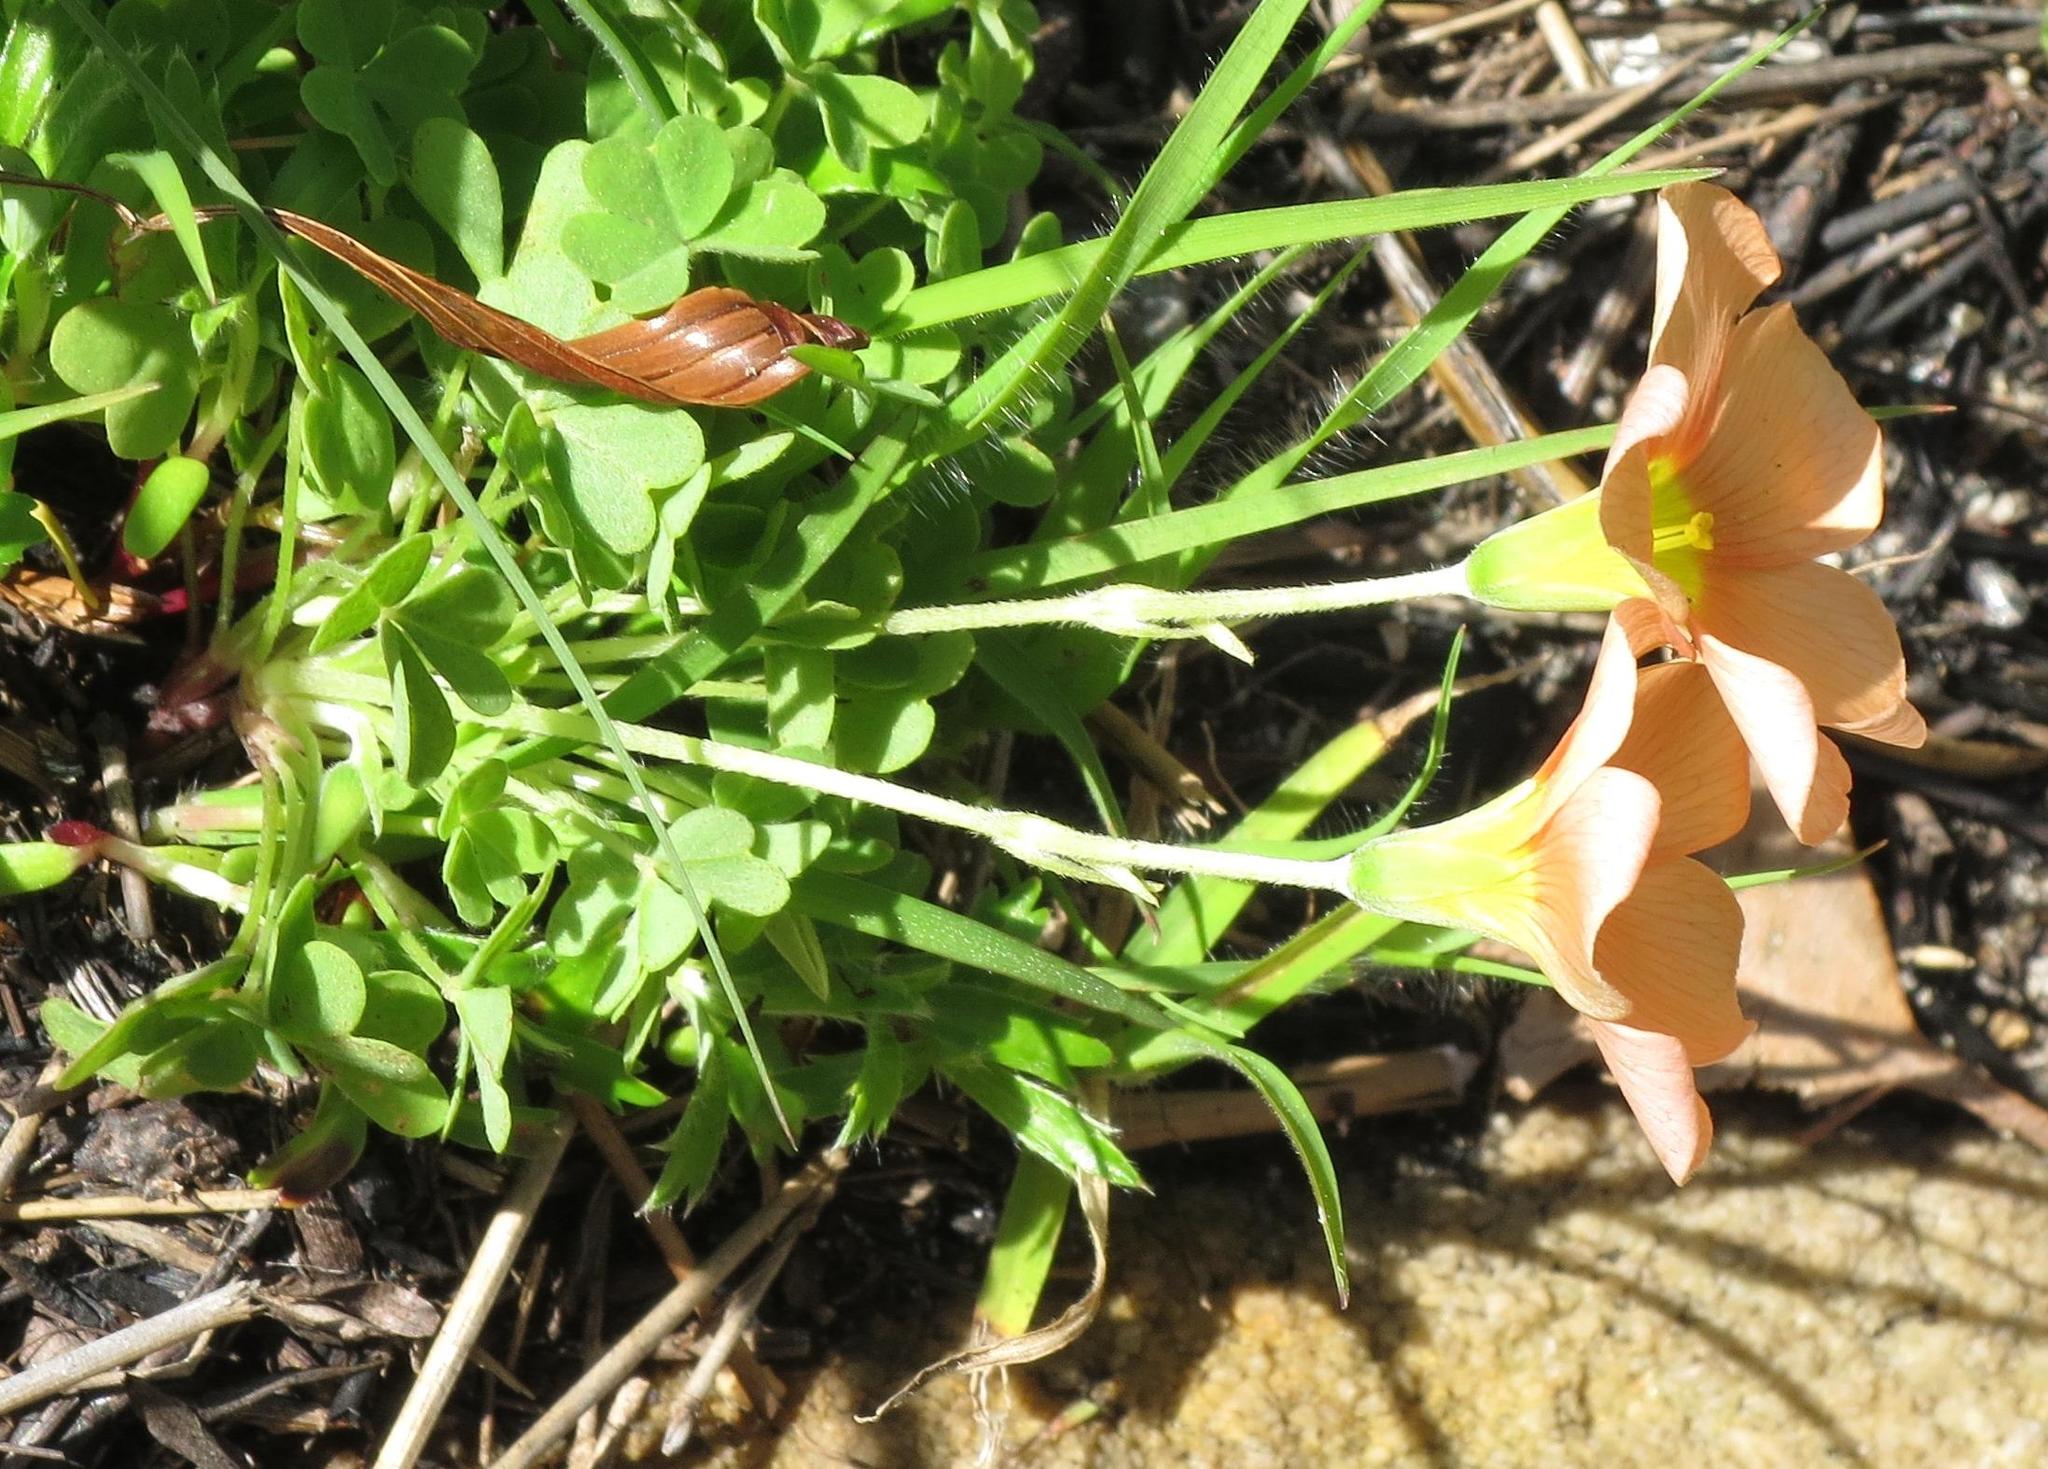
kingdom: Plantae
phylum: Tracheophyta
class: Magnoliopsida
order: Oxalidales
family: Oxalidaceae
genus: Oxalis
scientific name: Oxalis obtusa
